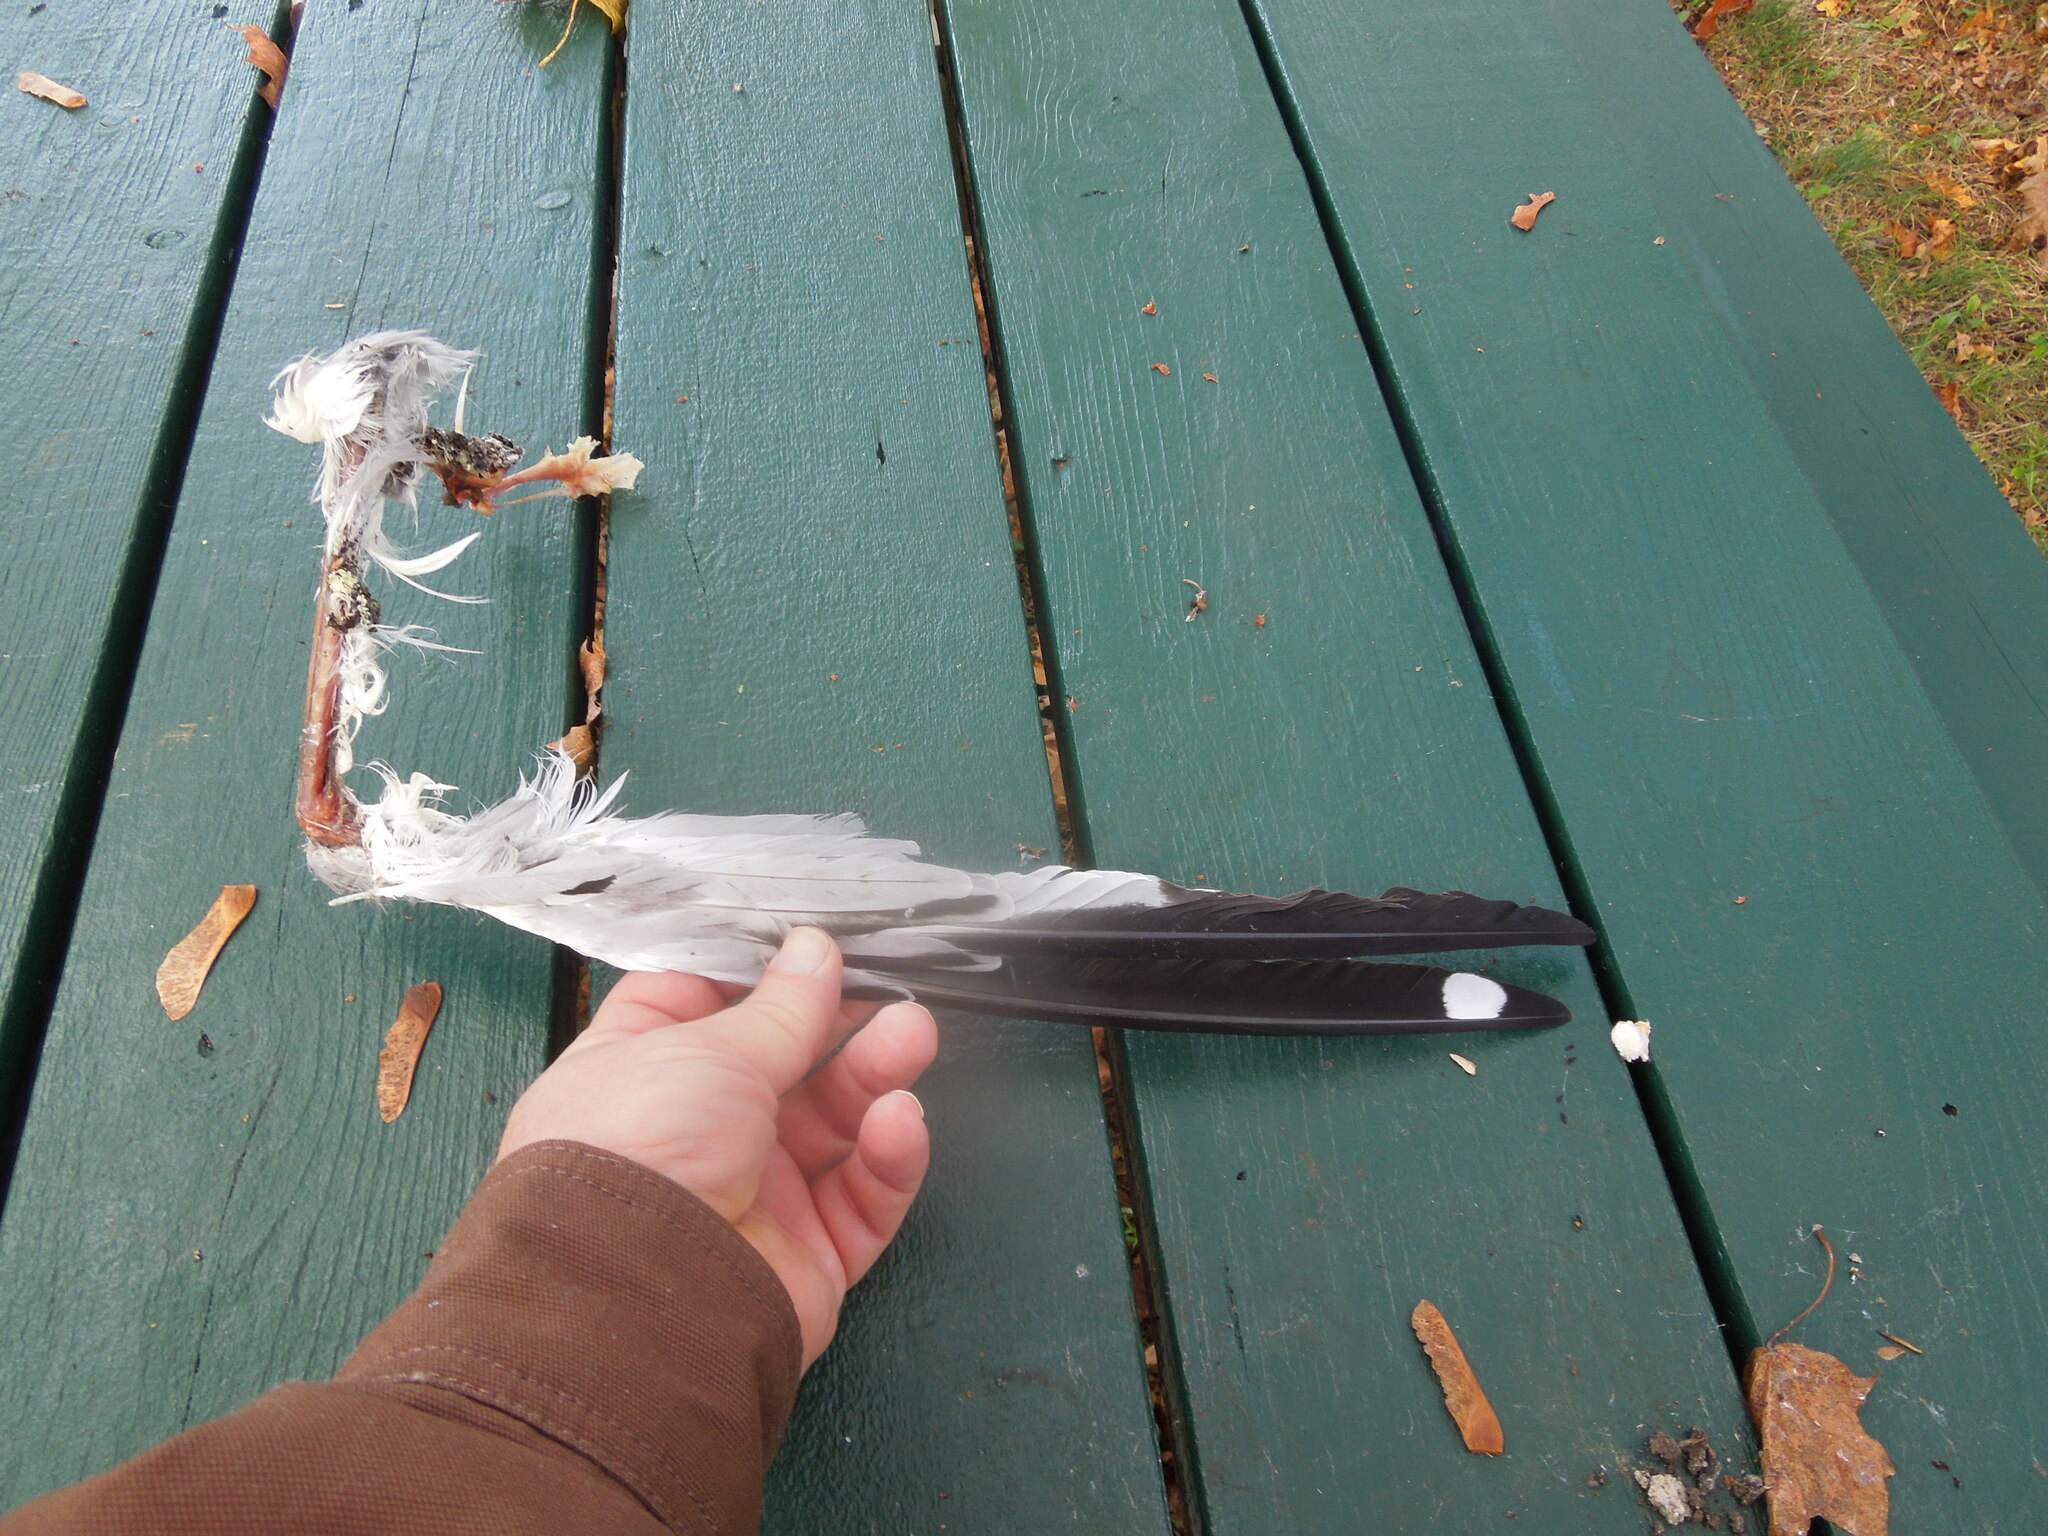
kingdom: Animalia
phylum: Chordata
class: Aves
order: Charadriiformes
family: Laridae
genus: Larus
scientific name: Larus
